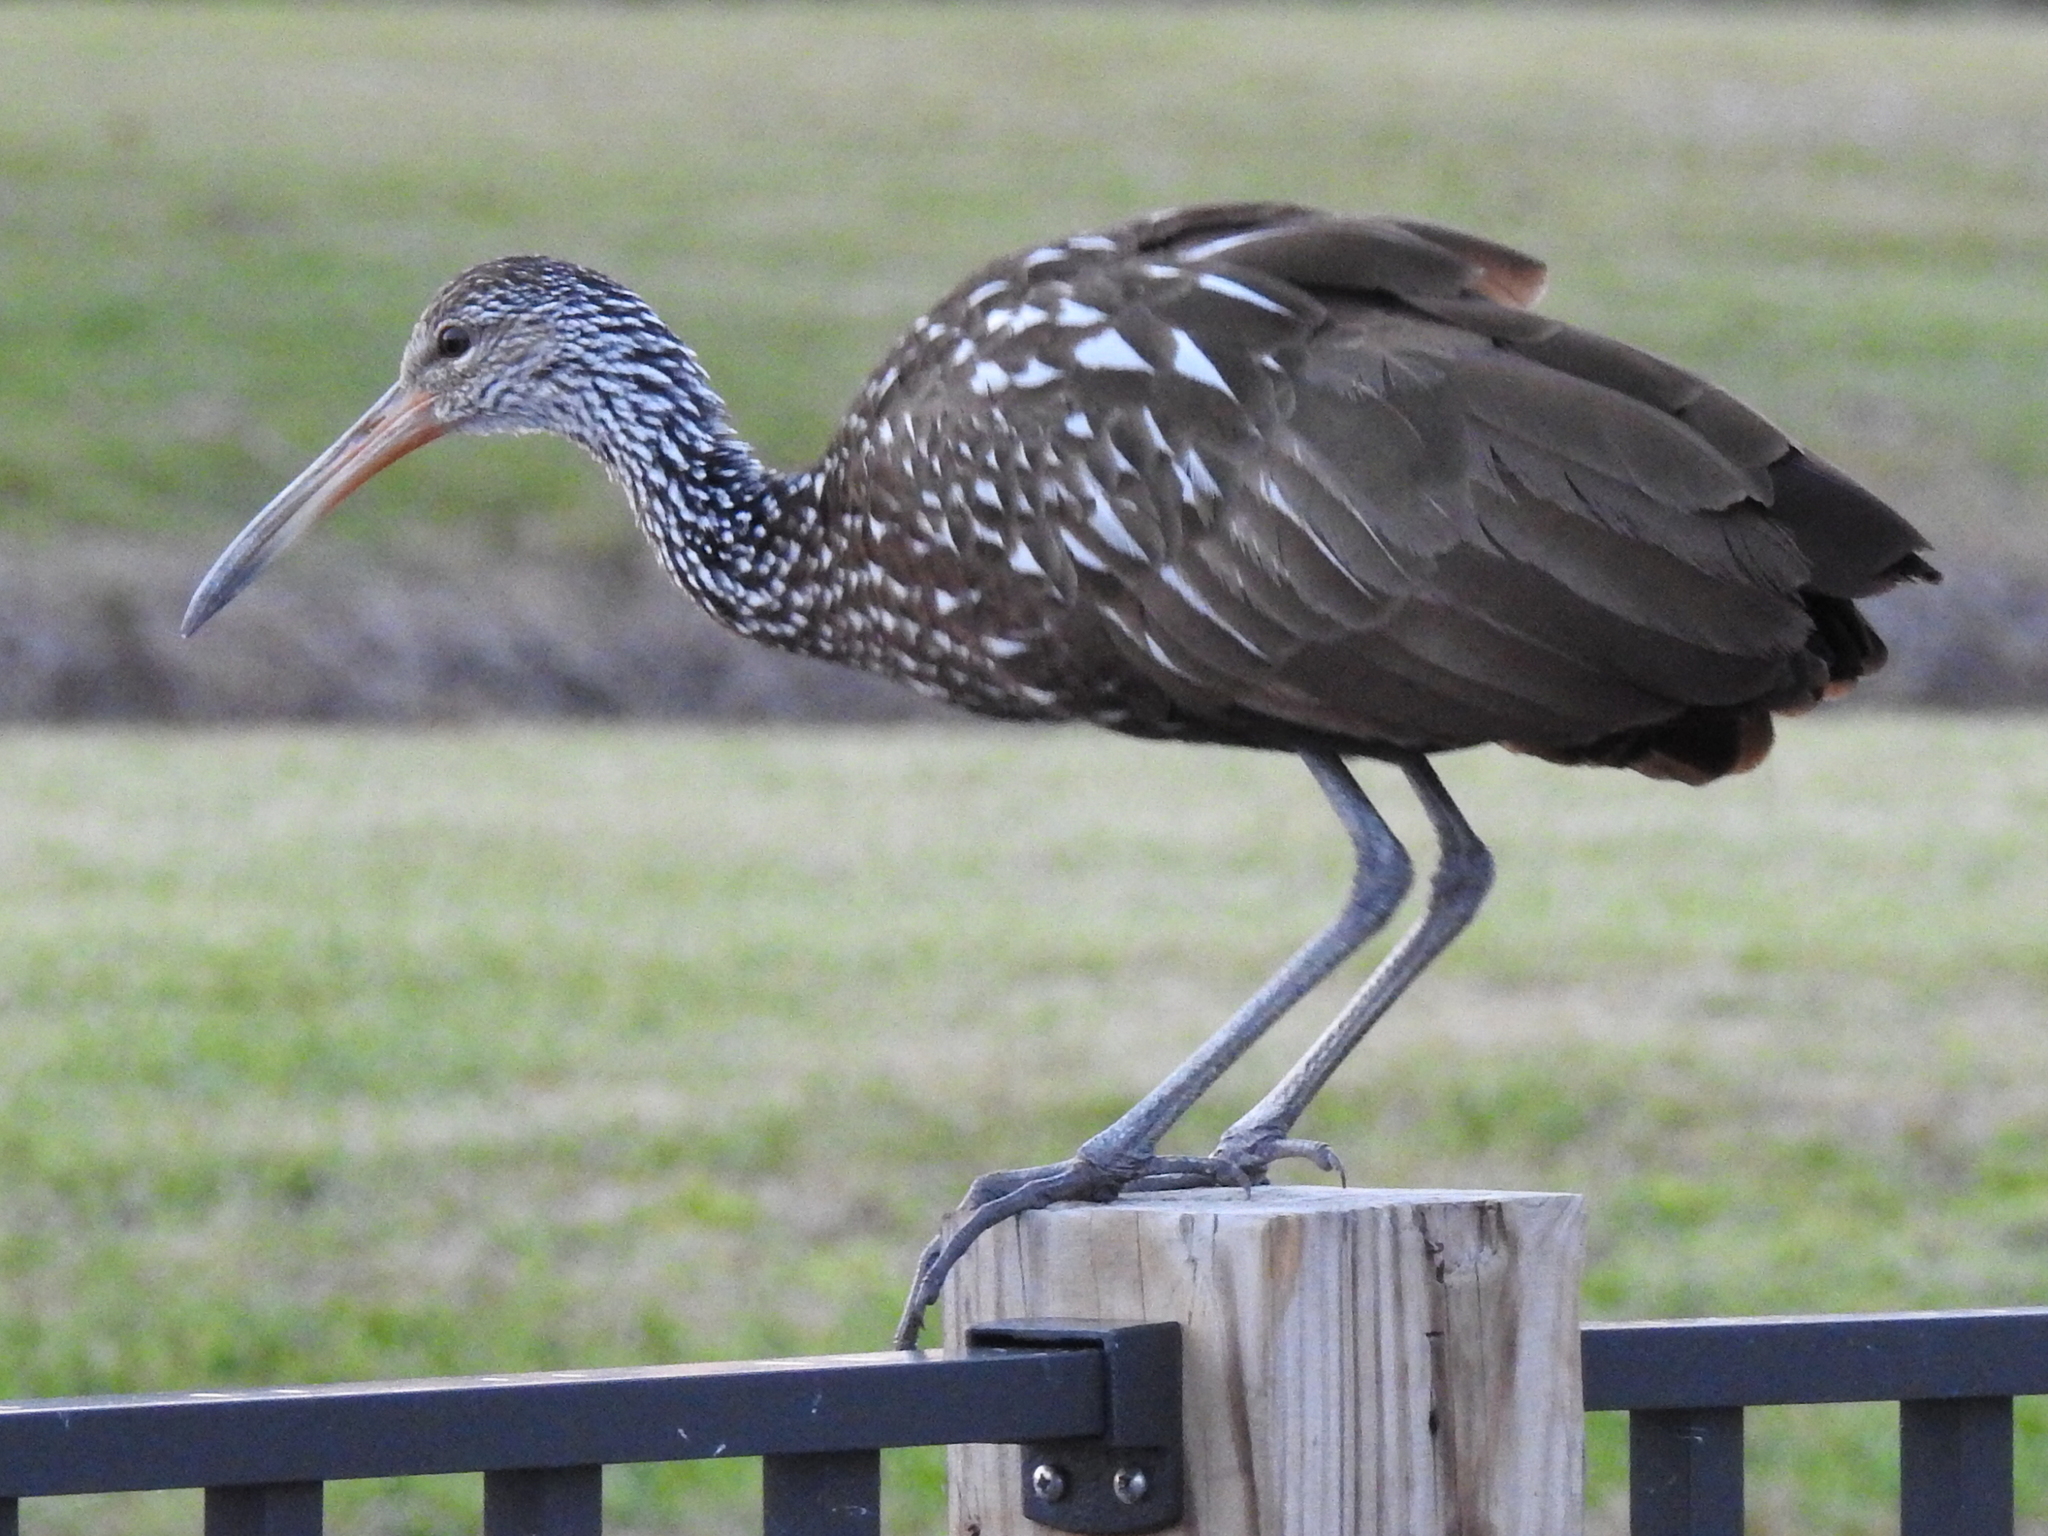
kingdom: Animalia
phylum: Chordata
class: Aves
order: Gruiformes
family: Aramidae
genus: Aramus
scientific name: Aramus guarauna
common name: Limpkin
